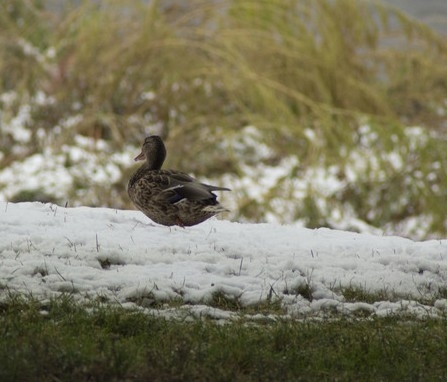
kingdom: Animalia
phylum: Chordata
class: Aves
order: Anseriformes
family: Anatidae
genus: Anas
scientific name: Anas platyrhynchos
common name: Mallard
